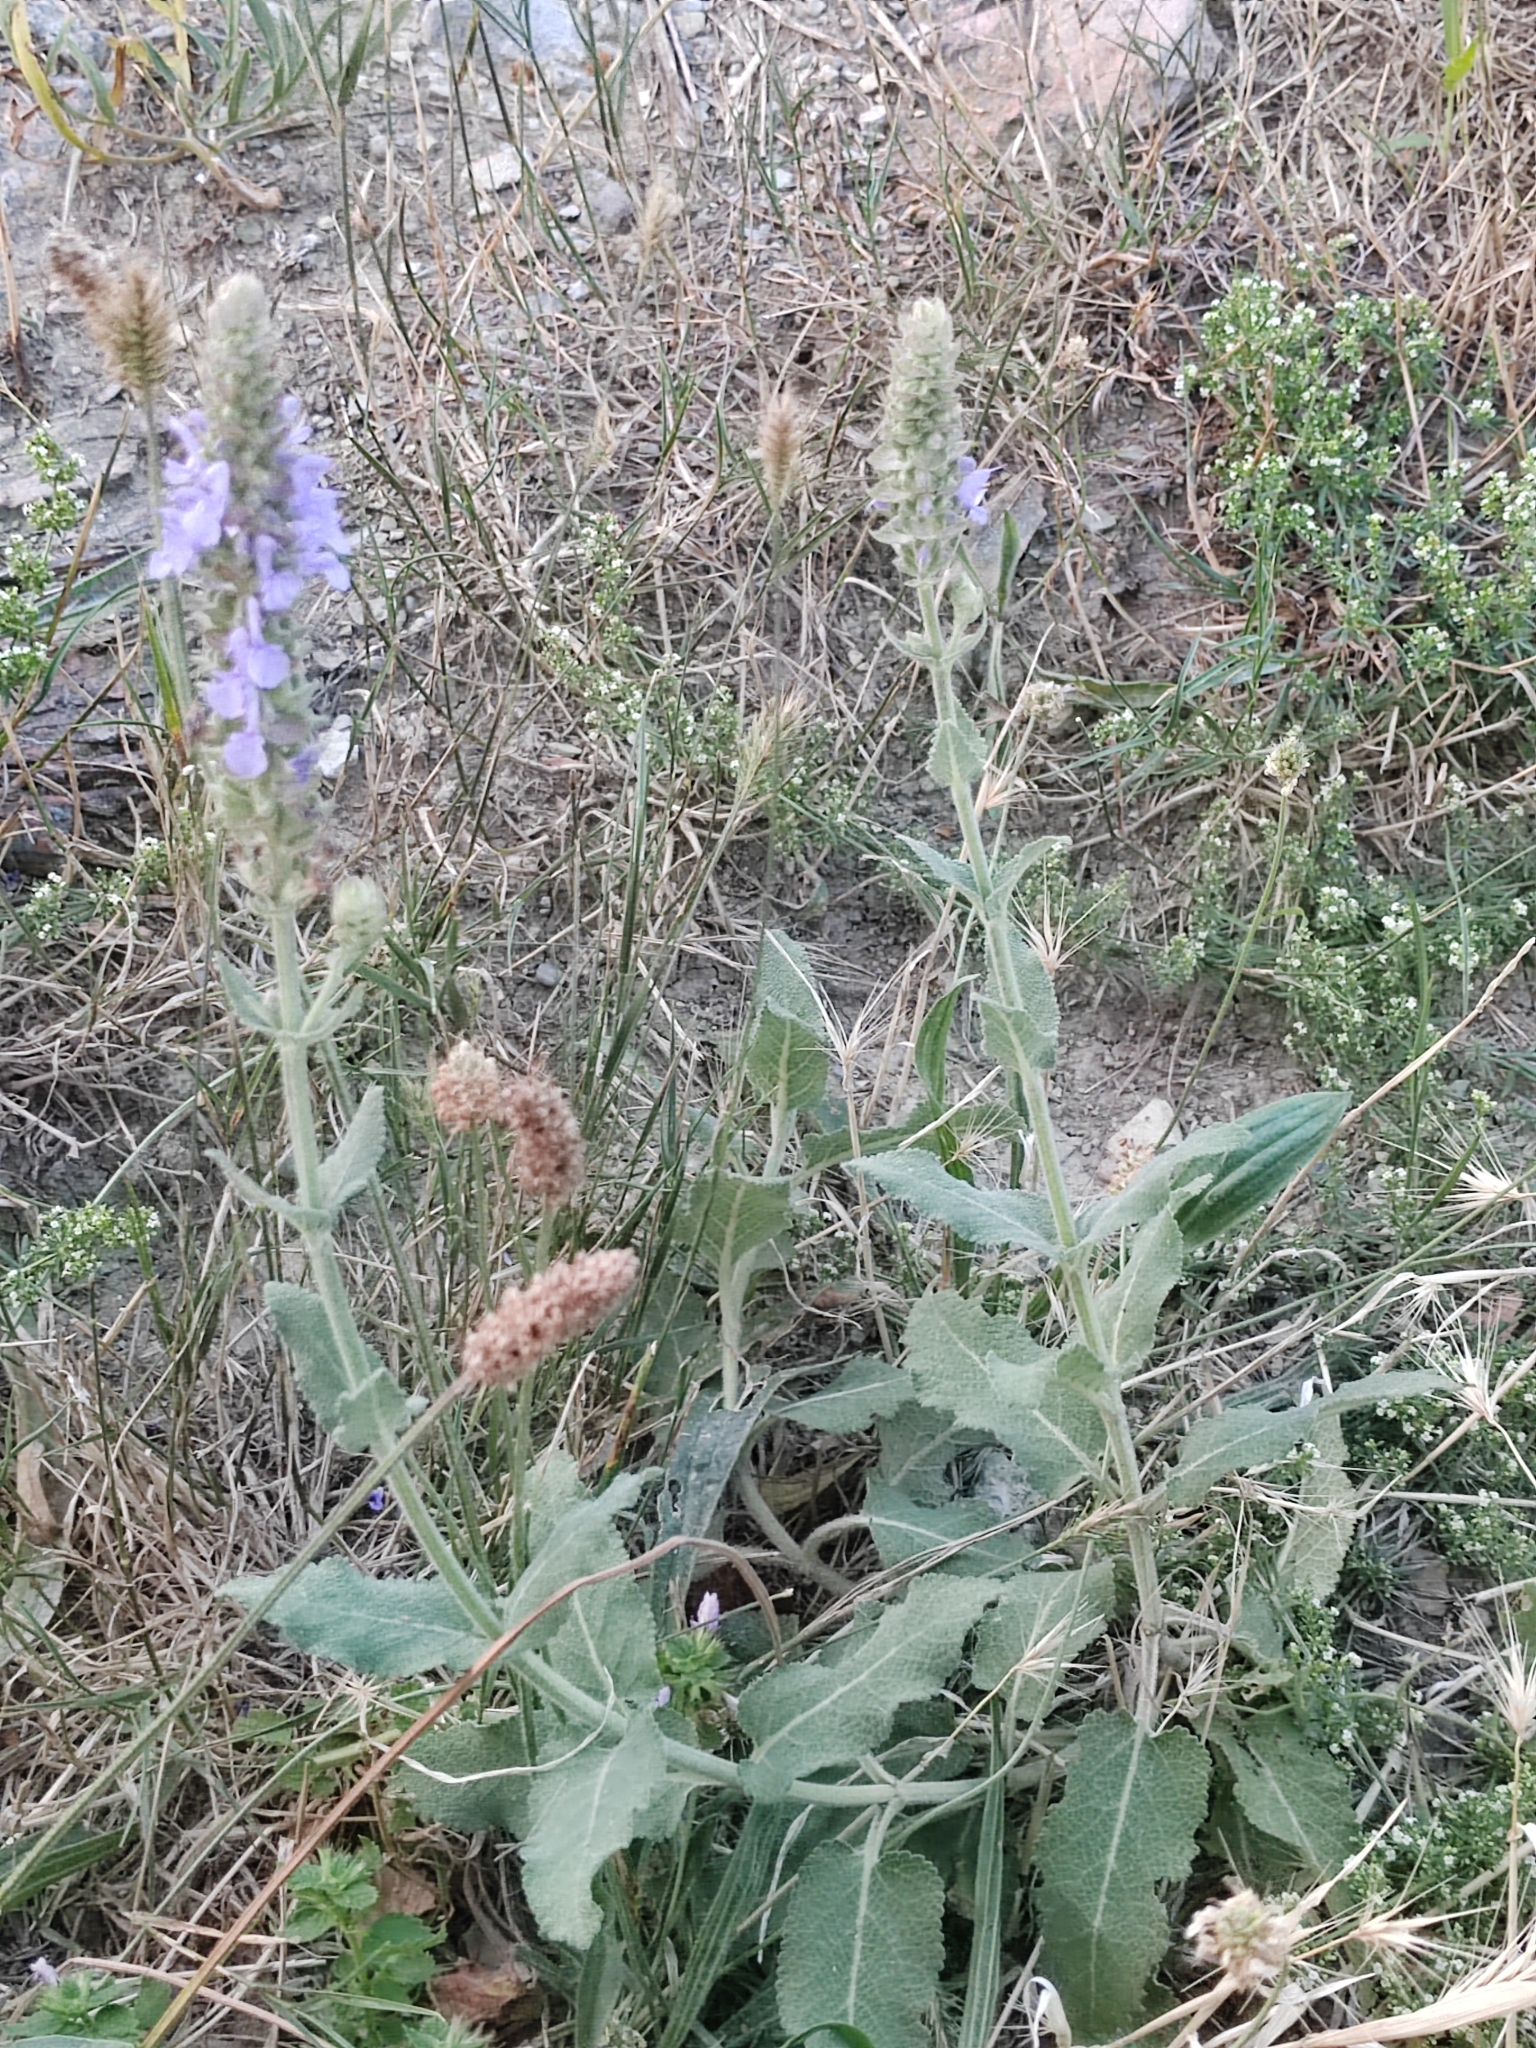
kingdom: Plantae
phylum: Tracheophyta
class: Magnoliopsida
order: Lamiales
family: Lamiaceae
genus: Salvia
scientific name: Salvia nemorosa
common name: Balkan clary
